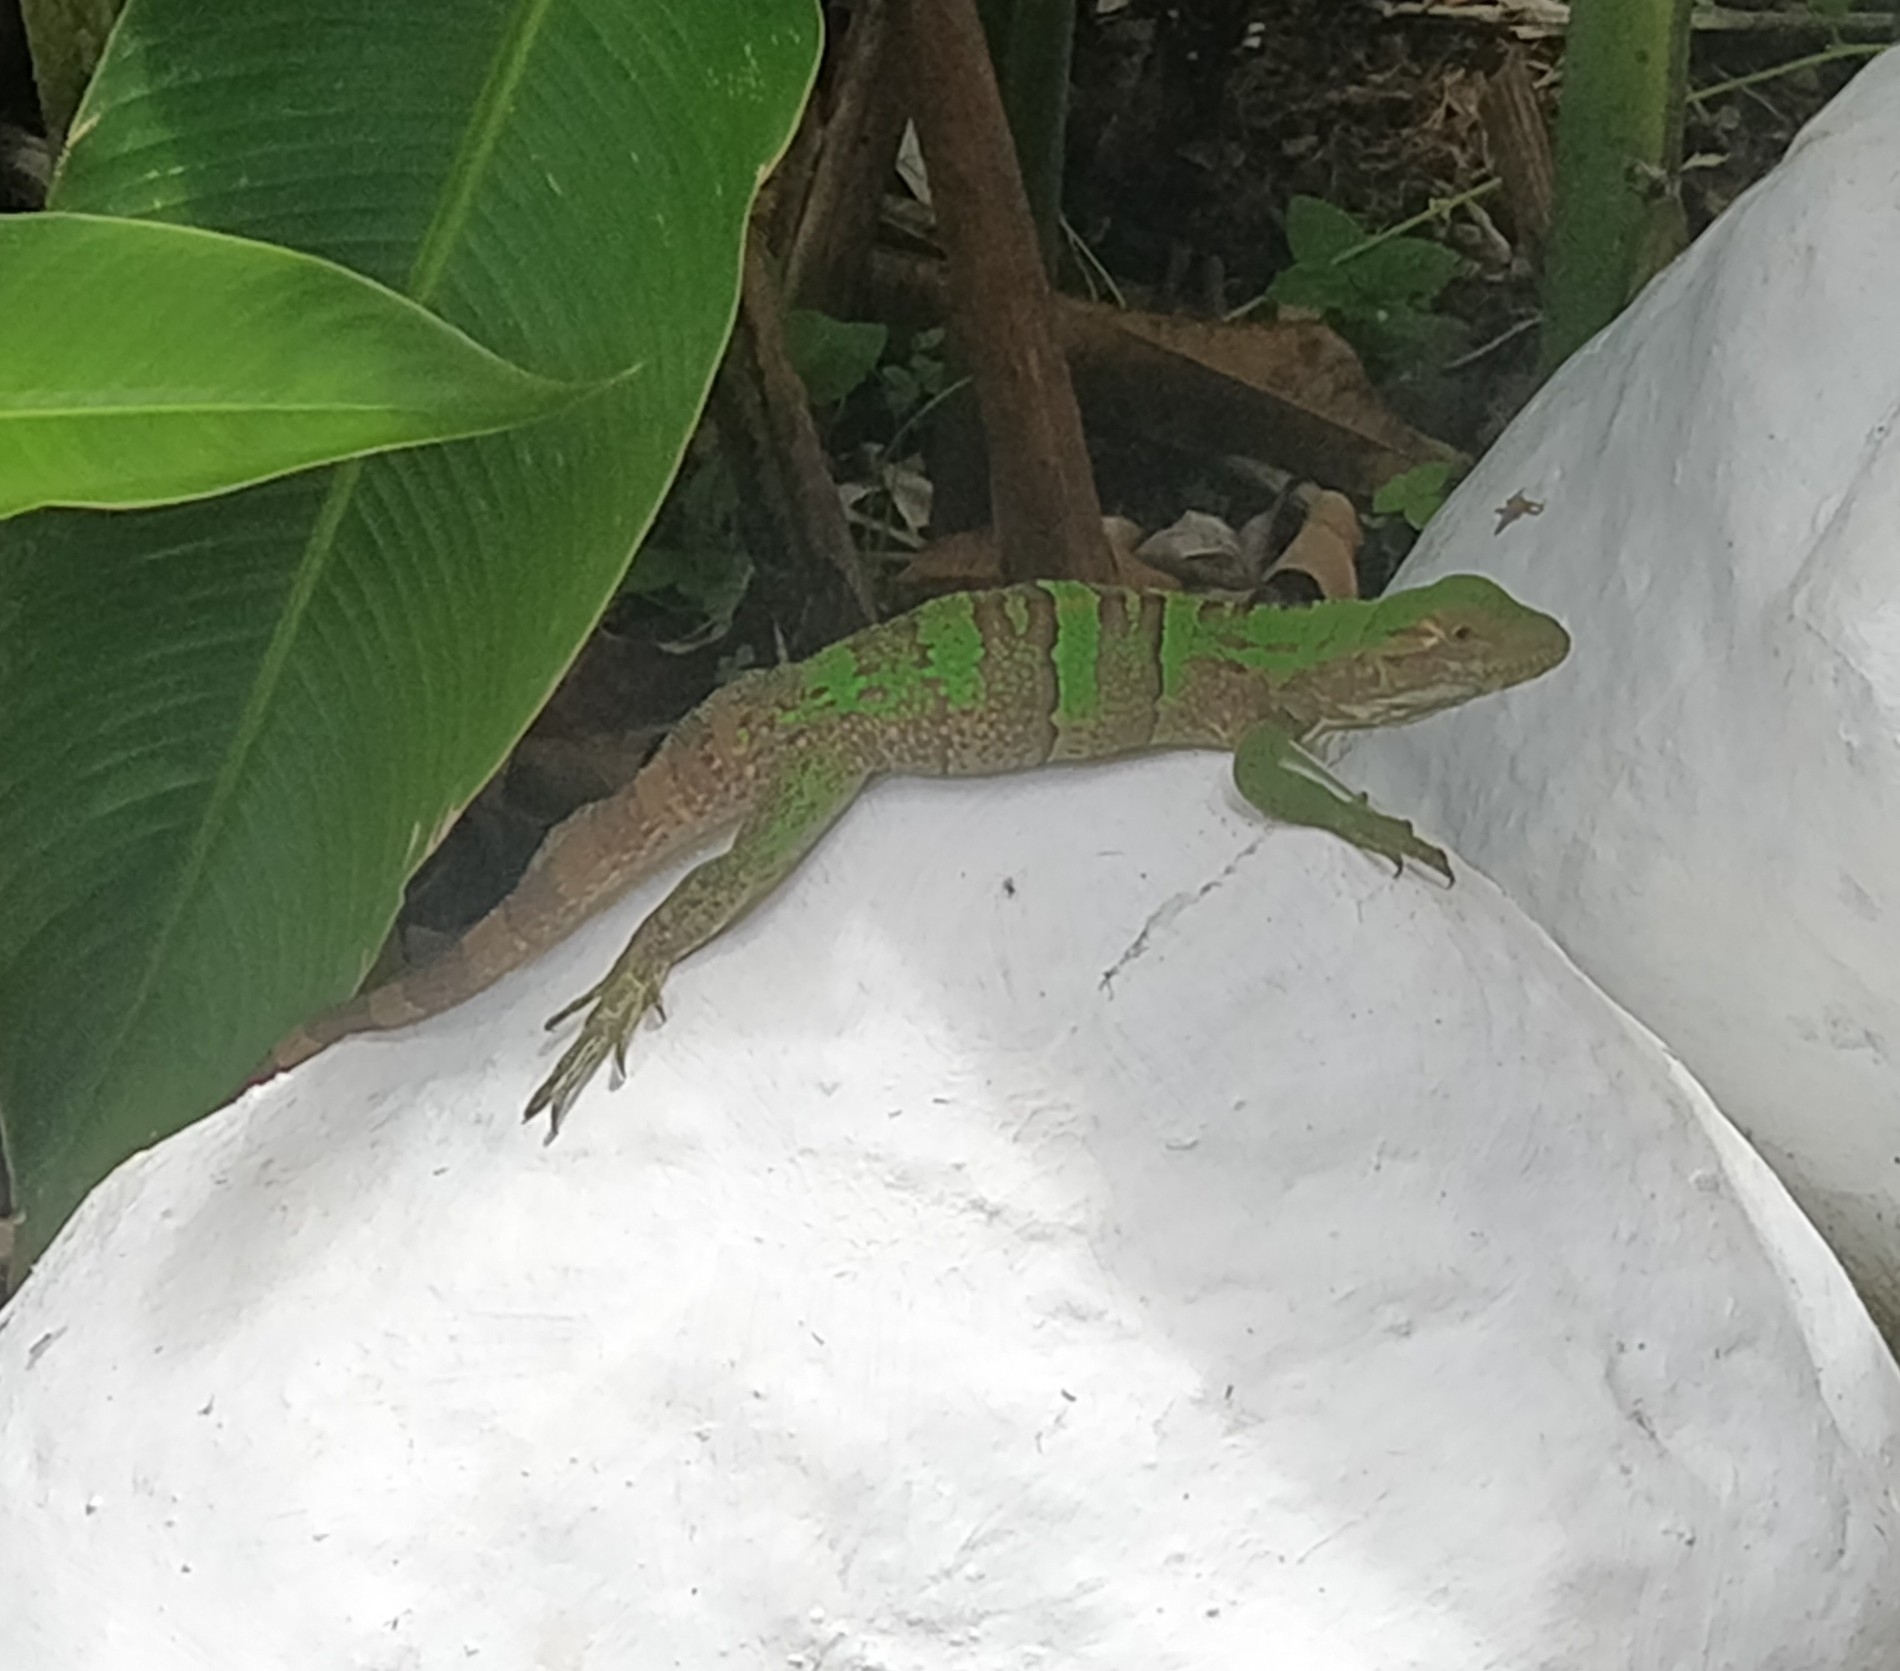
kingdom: Animalia
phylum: Chordata
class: Squamata
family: Iguanidae
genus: Ctenosaura
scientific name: Ctenosaura similis
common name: Black spiny-tailed iguana
